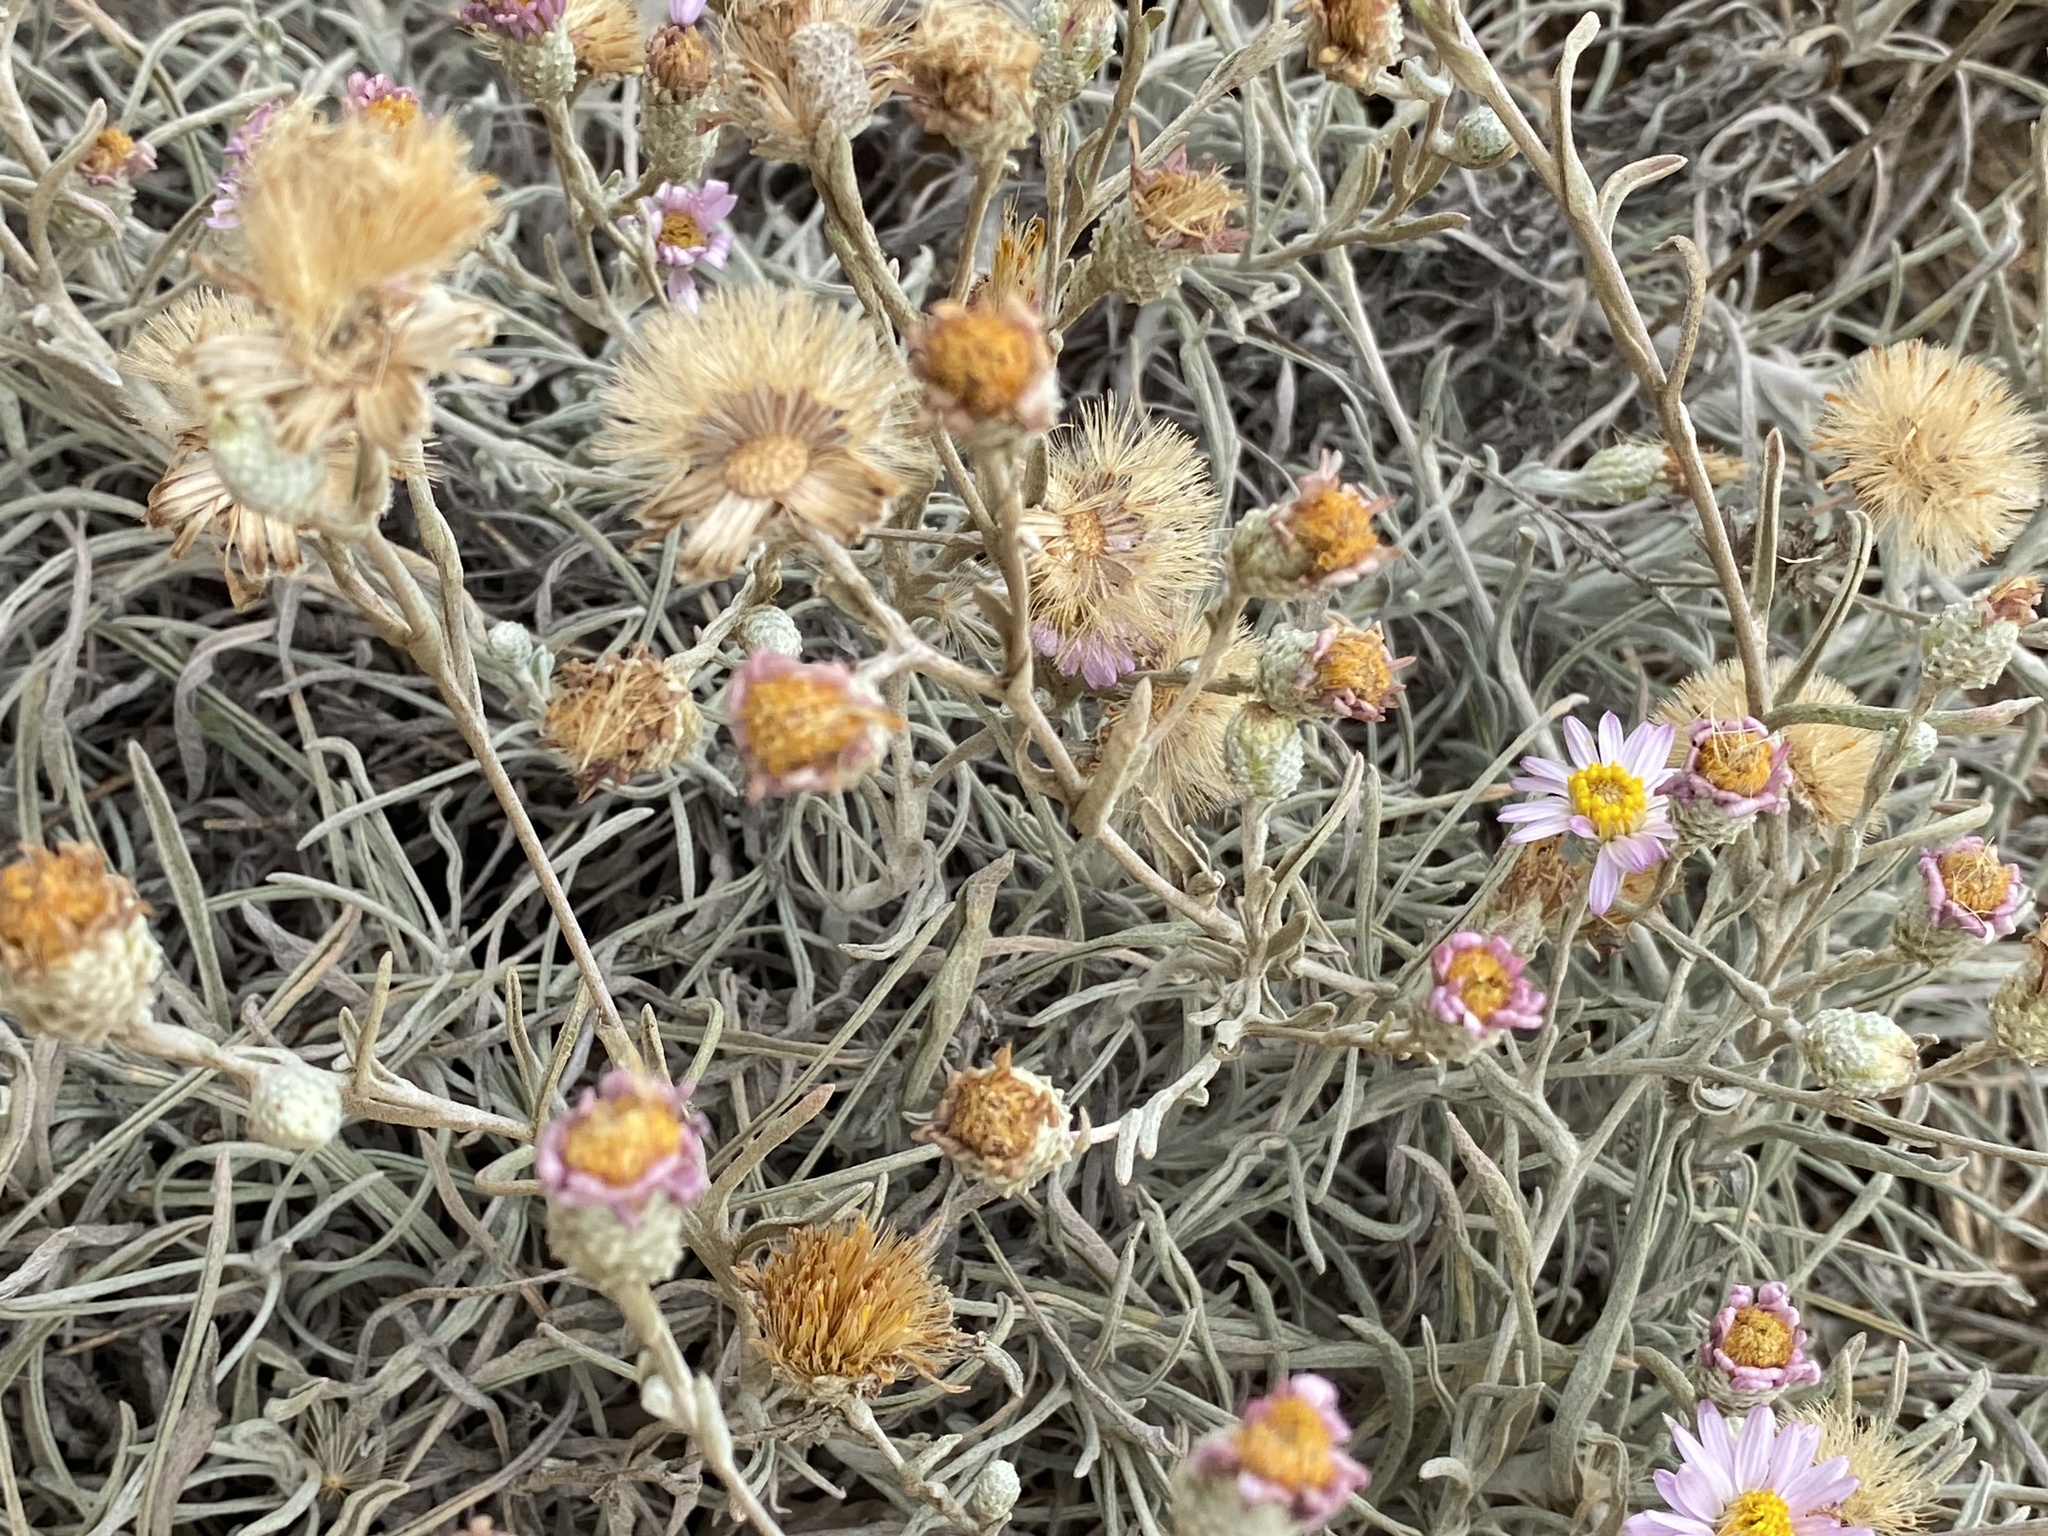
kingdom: Plantae
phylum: Tracheophyta
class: Magnoliopsida
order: Asterales
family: Asteraceae
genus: Corethrogyne
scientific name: Corethrogyne filaginifolia
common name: Sand-aster
